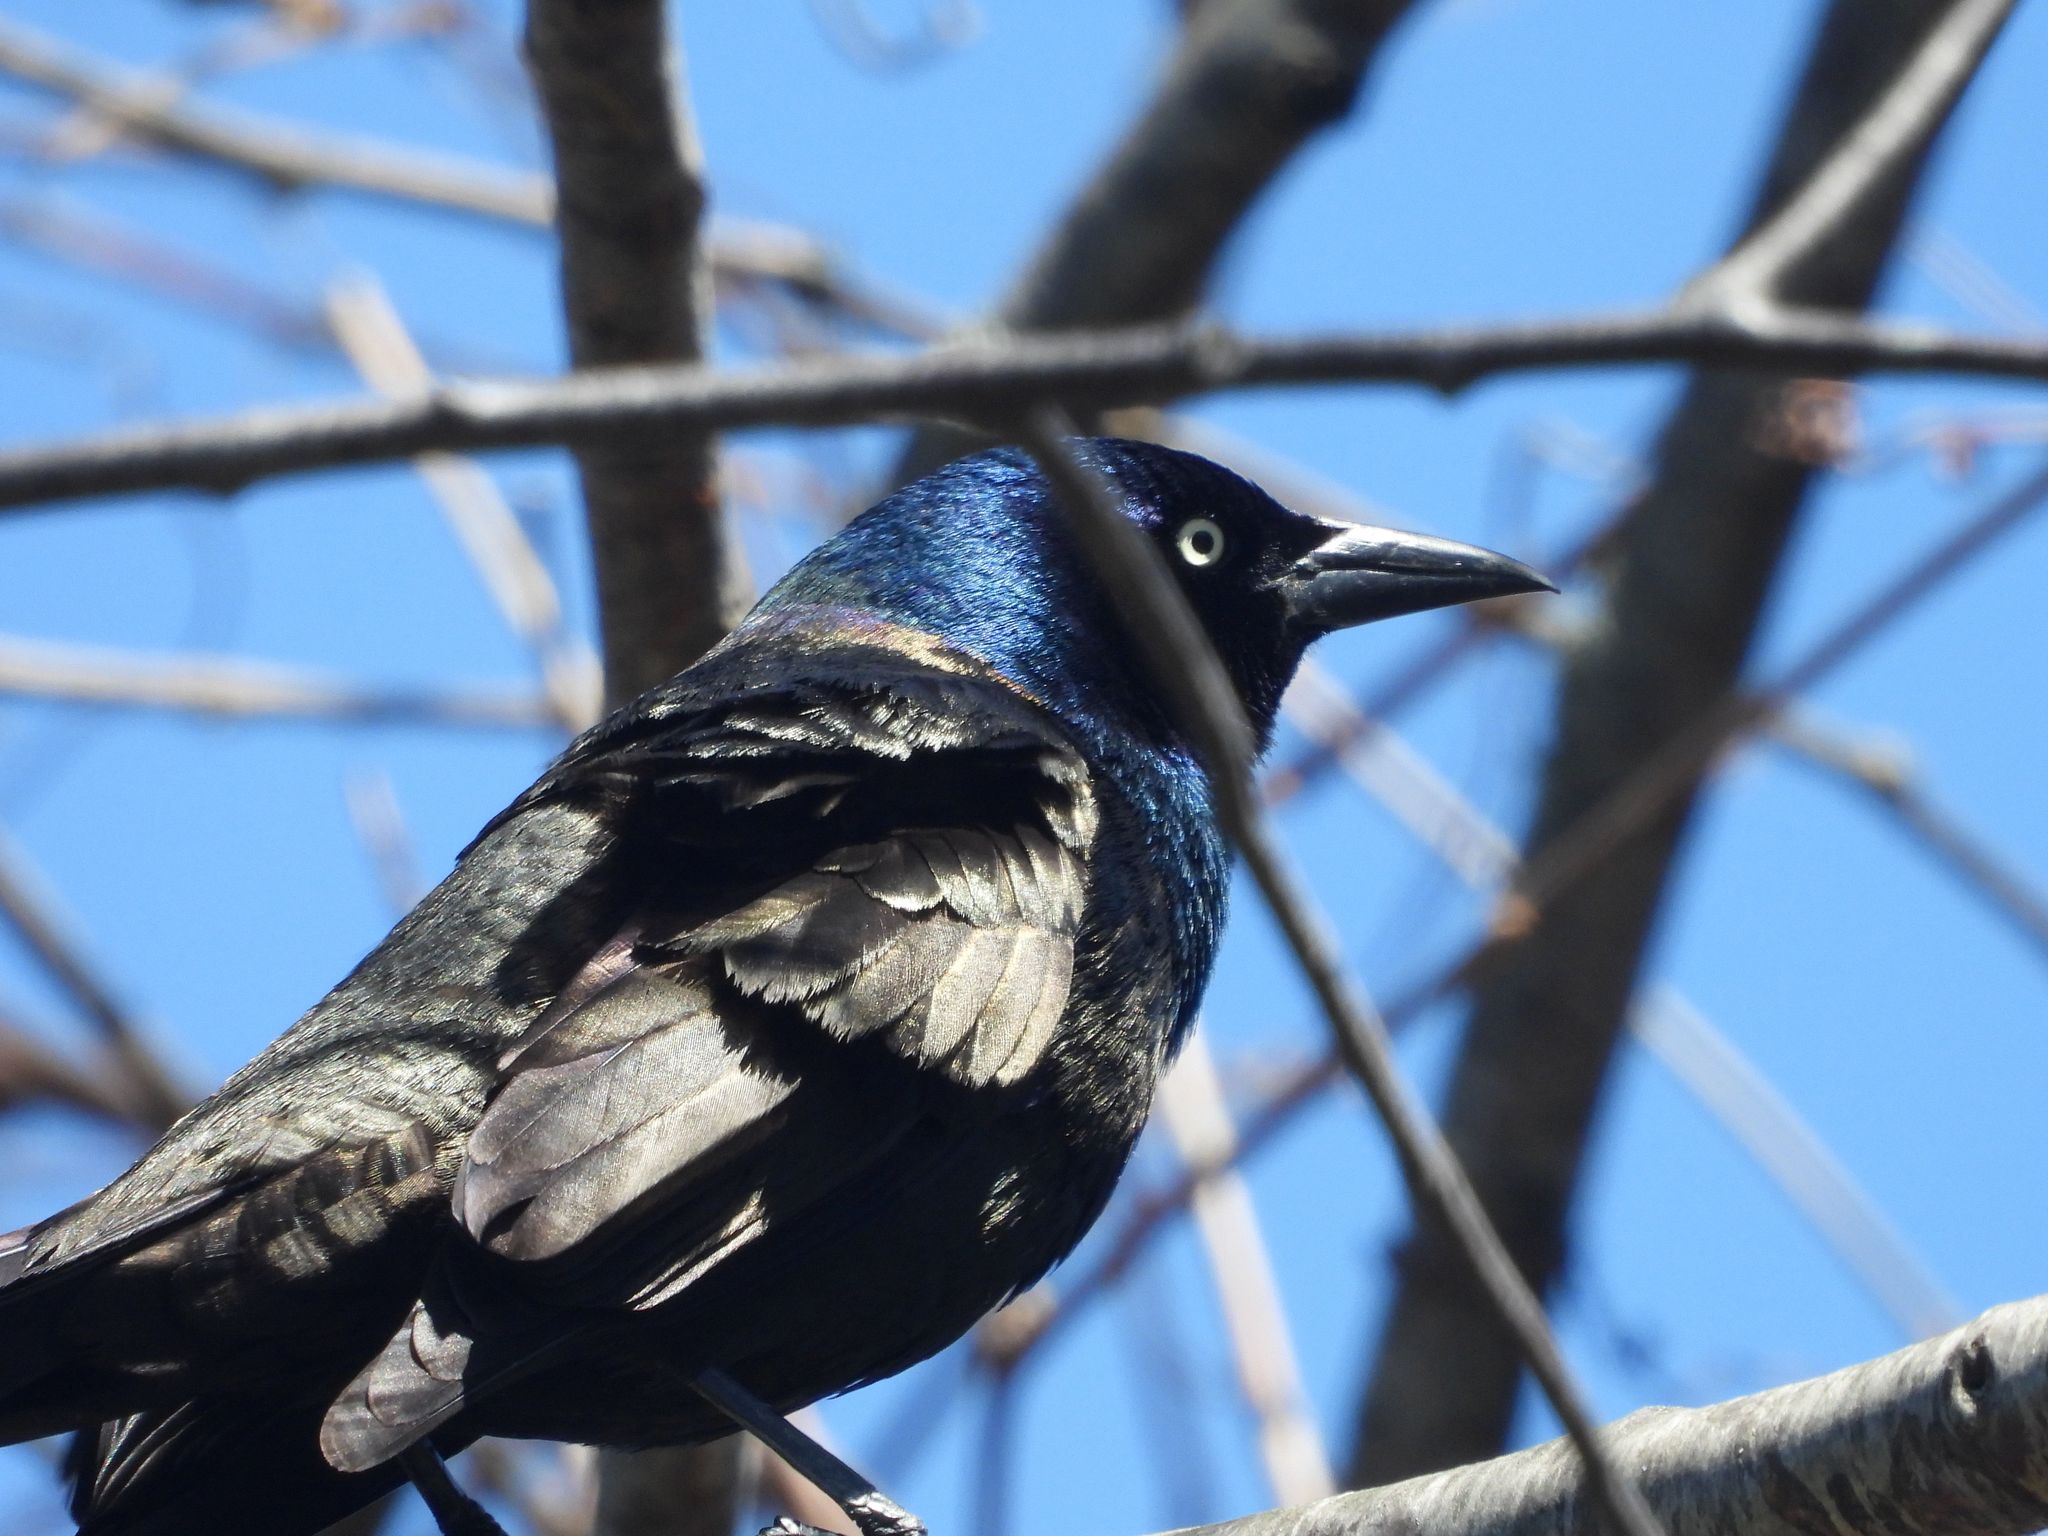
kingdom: Animalia
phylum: Chordata
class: Aves
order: Passeriformes
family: Icteridae
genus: Quiscalus
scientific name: Quiscalus quiscula
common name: Common grackle
